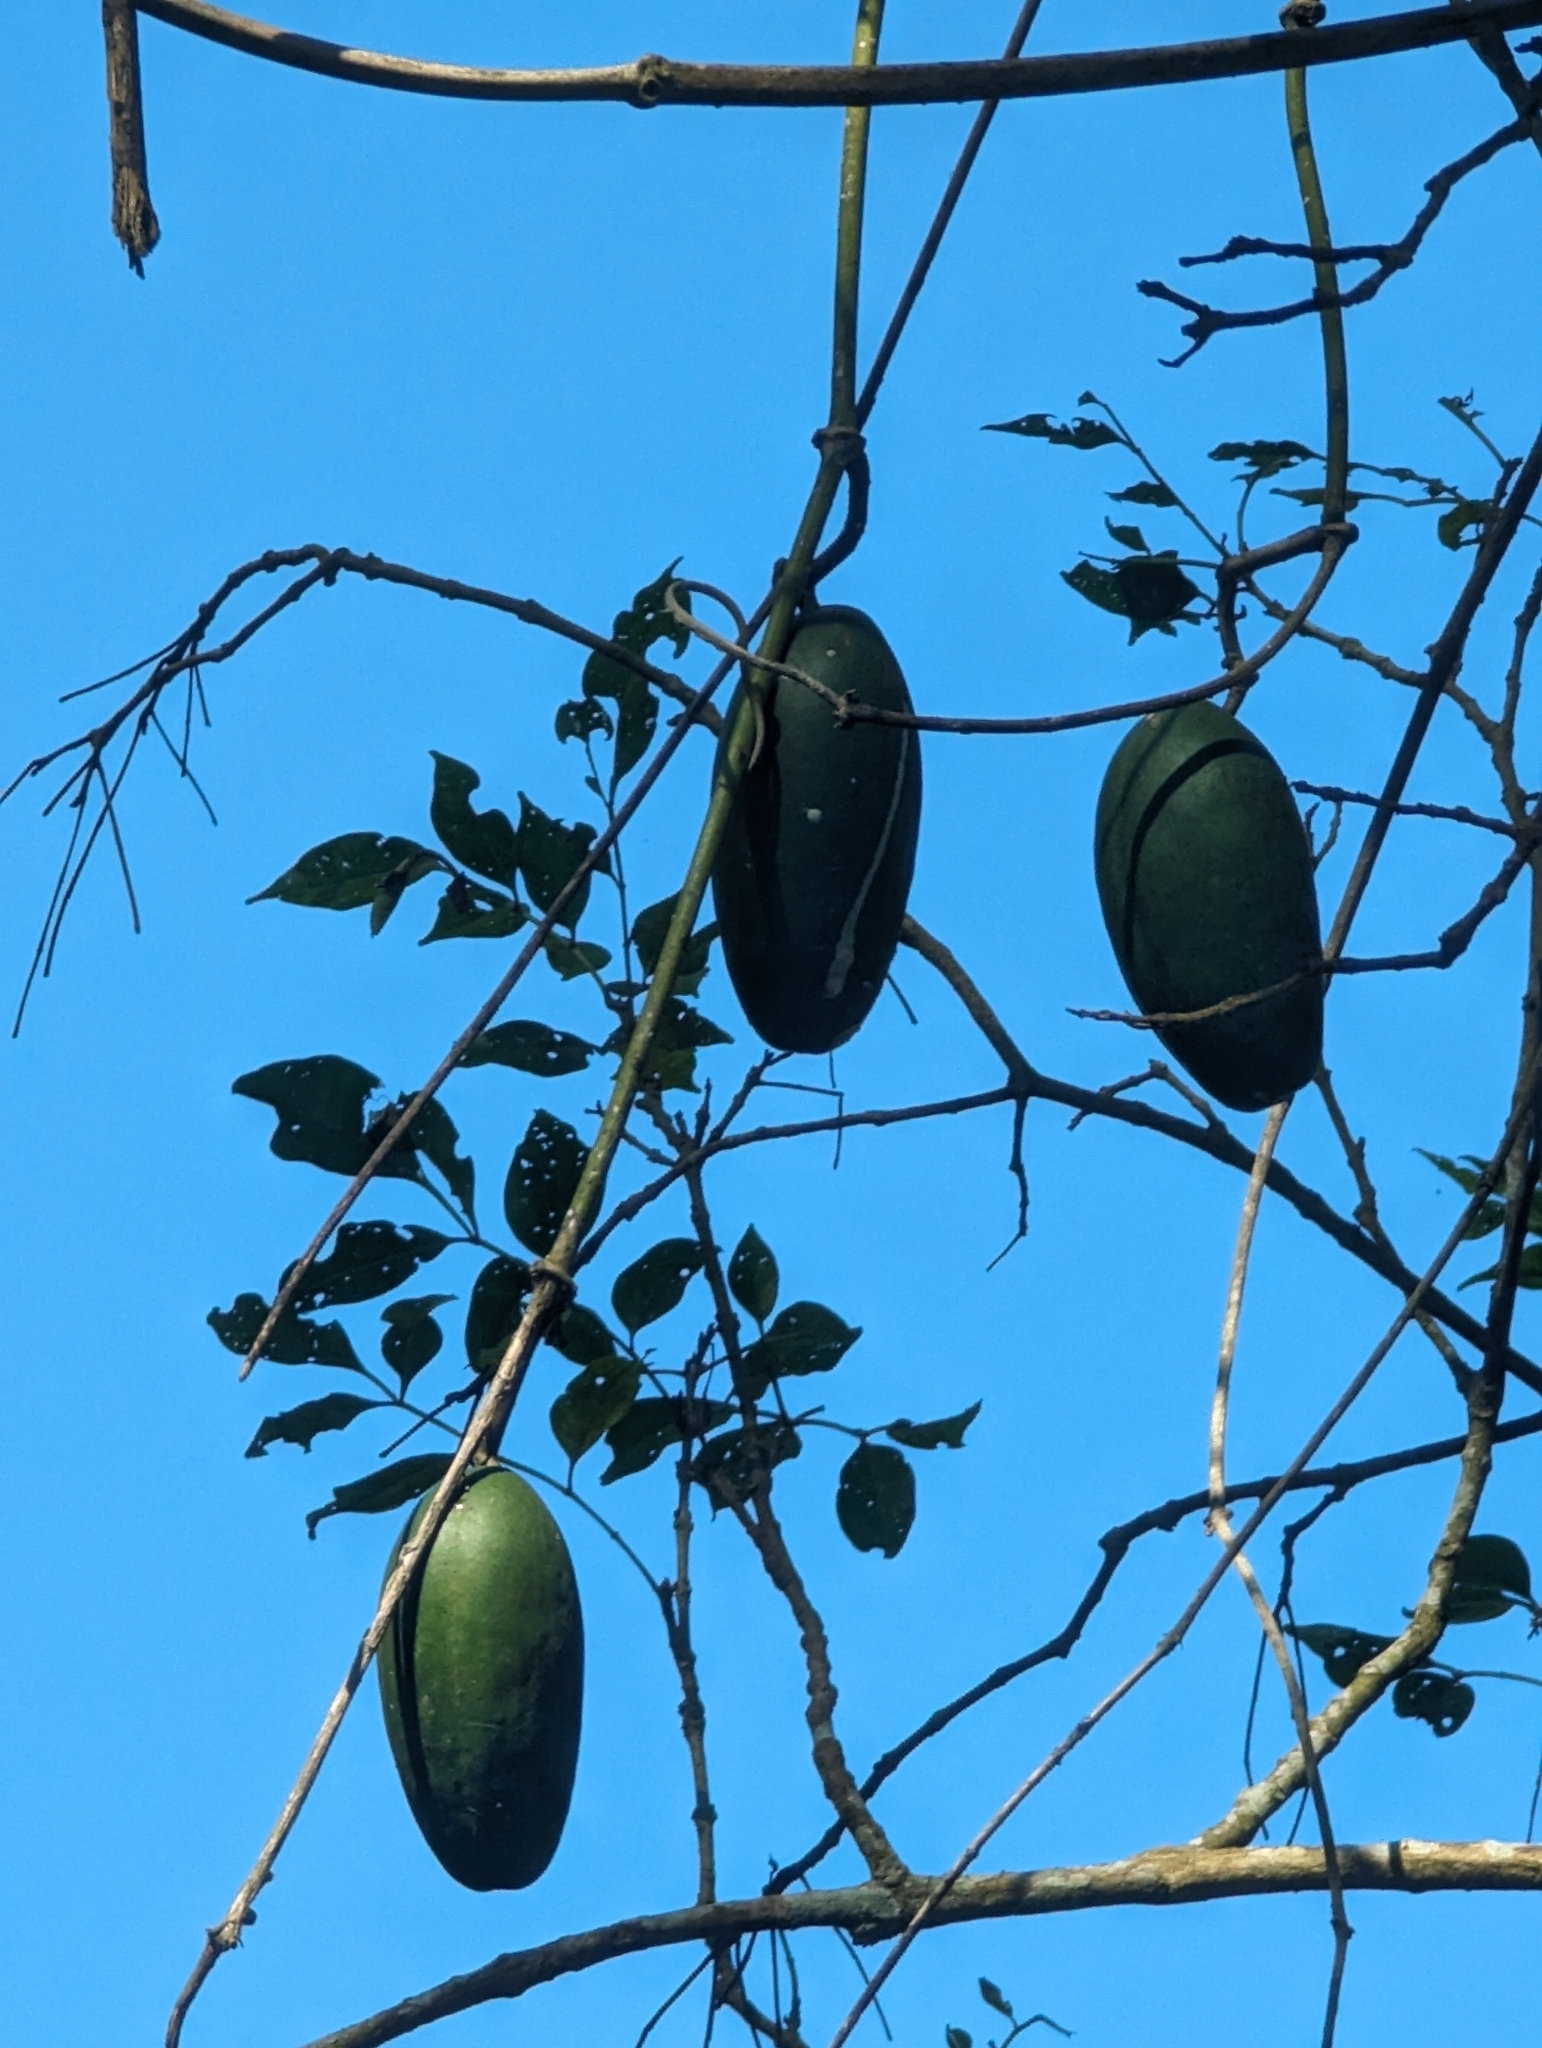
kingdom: Plantae
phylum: Tracheophyta
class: Magnoliopsida
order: Gentianales
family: Apocynaceae
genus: Sinomarsdenia
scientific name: Sinomarsdenia formosana
